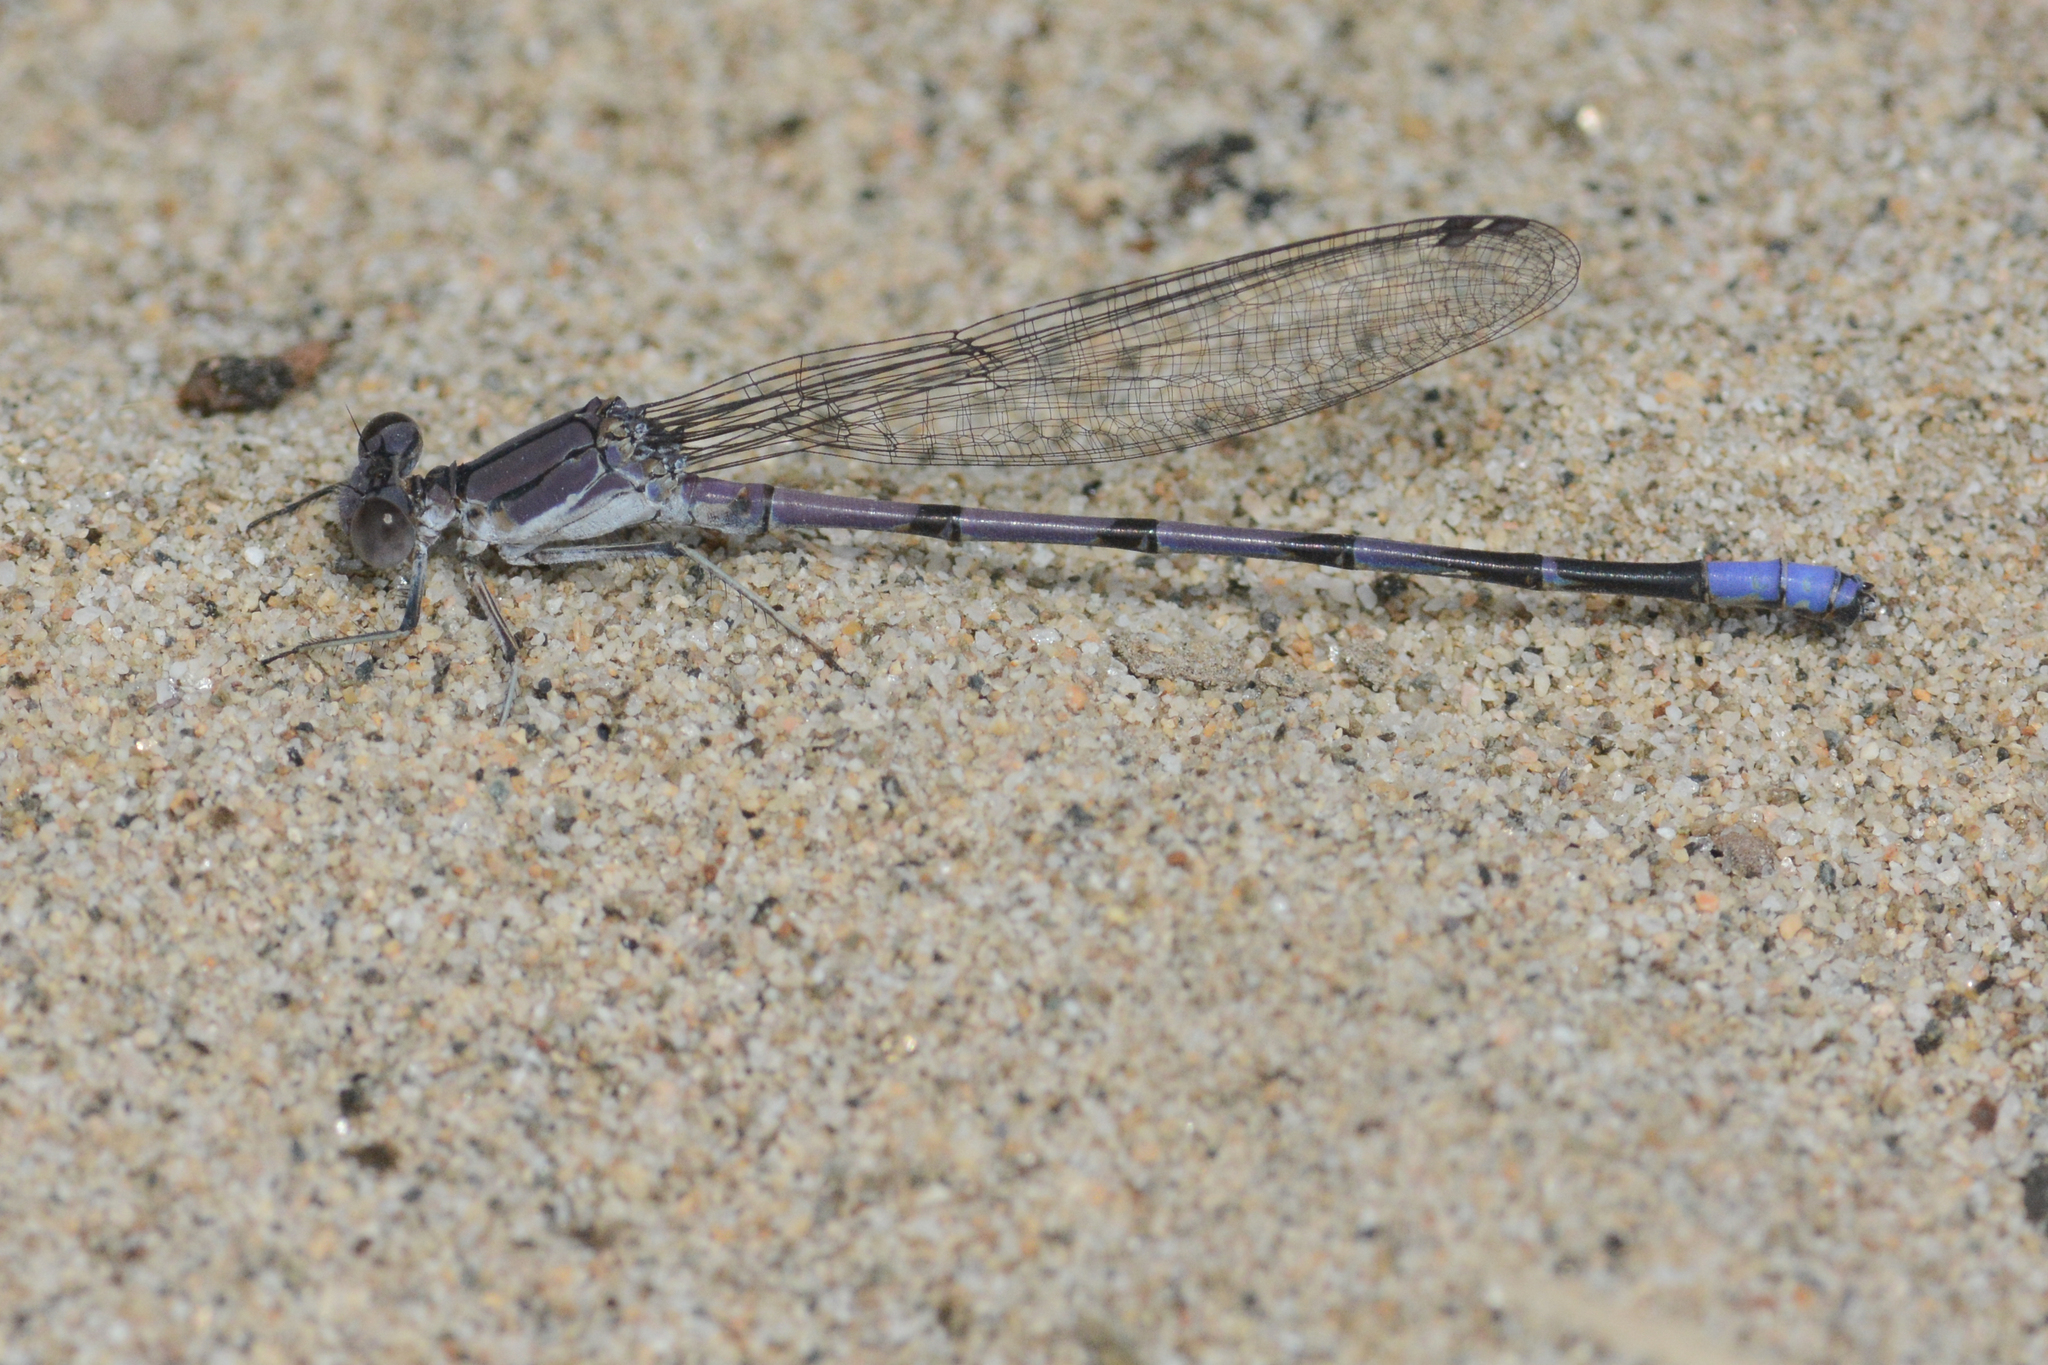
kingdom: Animalia
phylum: Arthropoda
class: Insecta
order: Odonata
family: Coenagrionidae
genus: Argia
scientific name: Argia emma
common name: Emma's dancer
